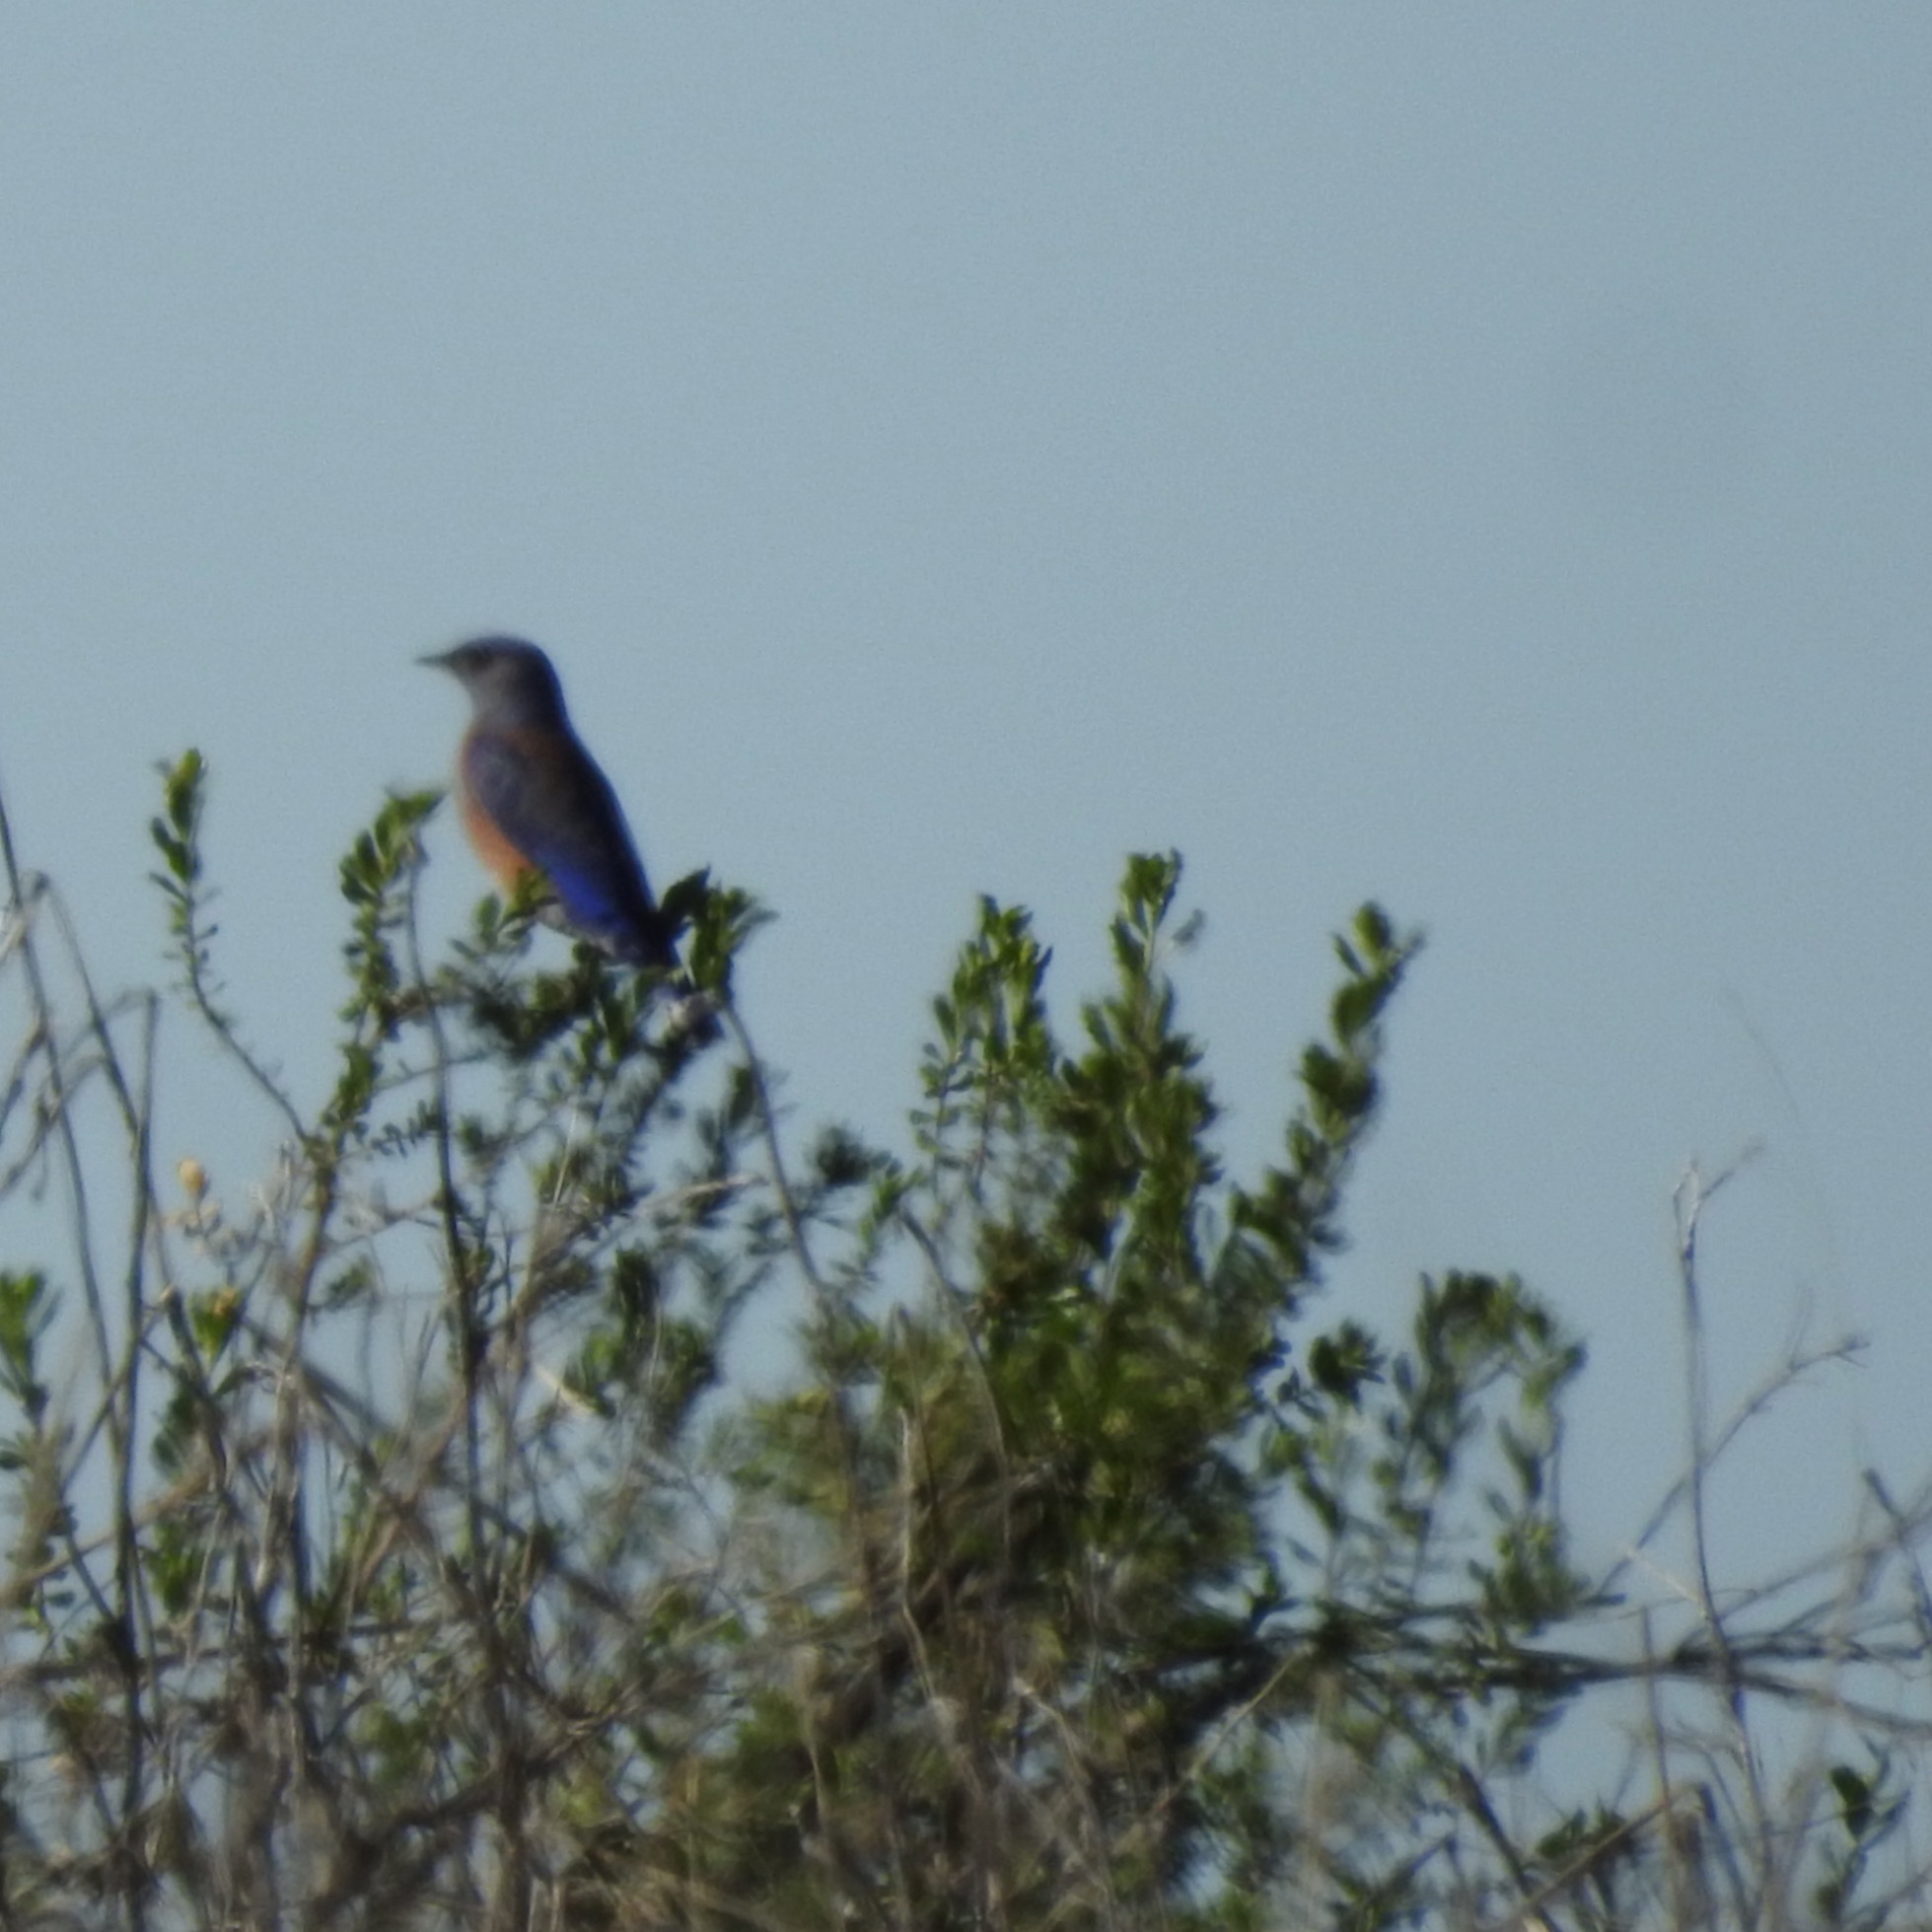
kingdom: Animalia
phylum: Chordata
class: Aves
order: Passeriformes
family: Turdidae
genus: Sialia
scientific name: Sialia mexicana
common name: Western bluebird
